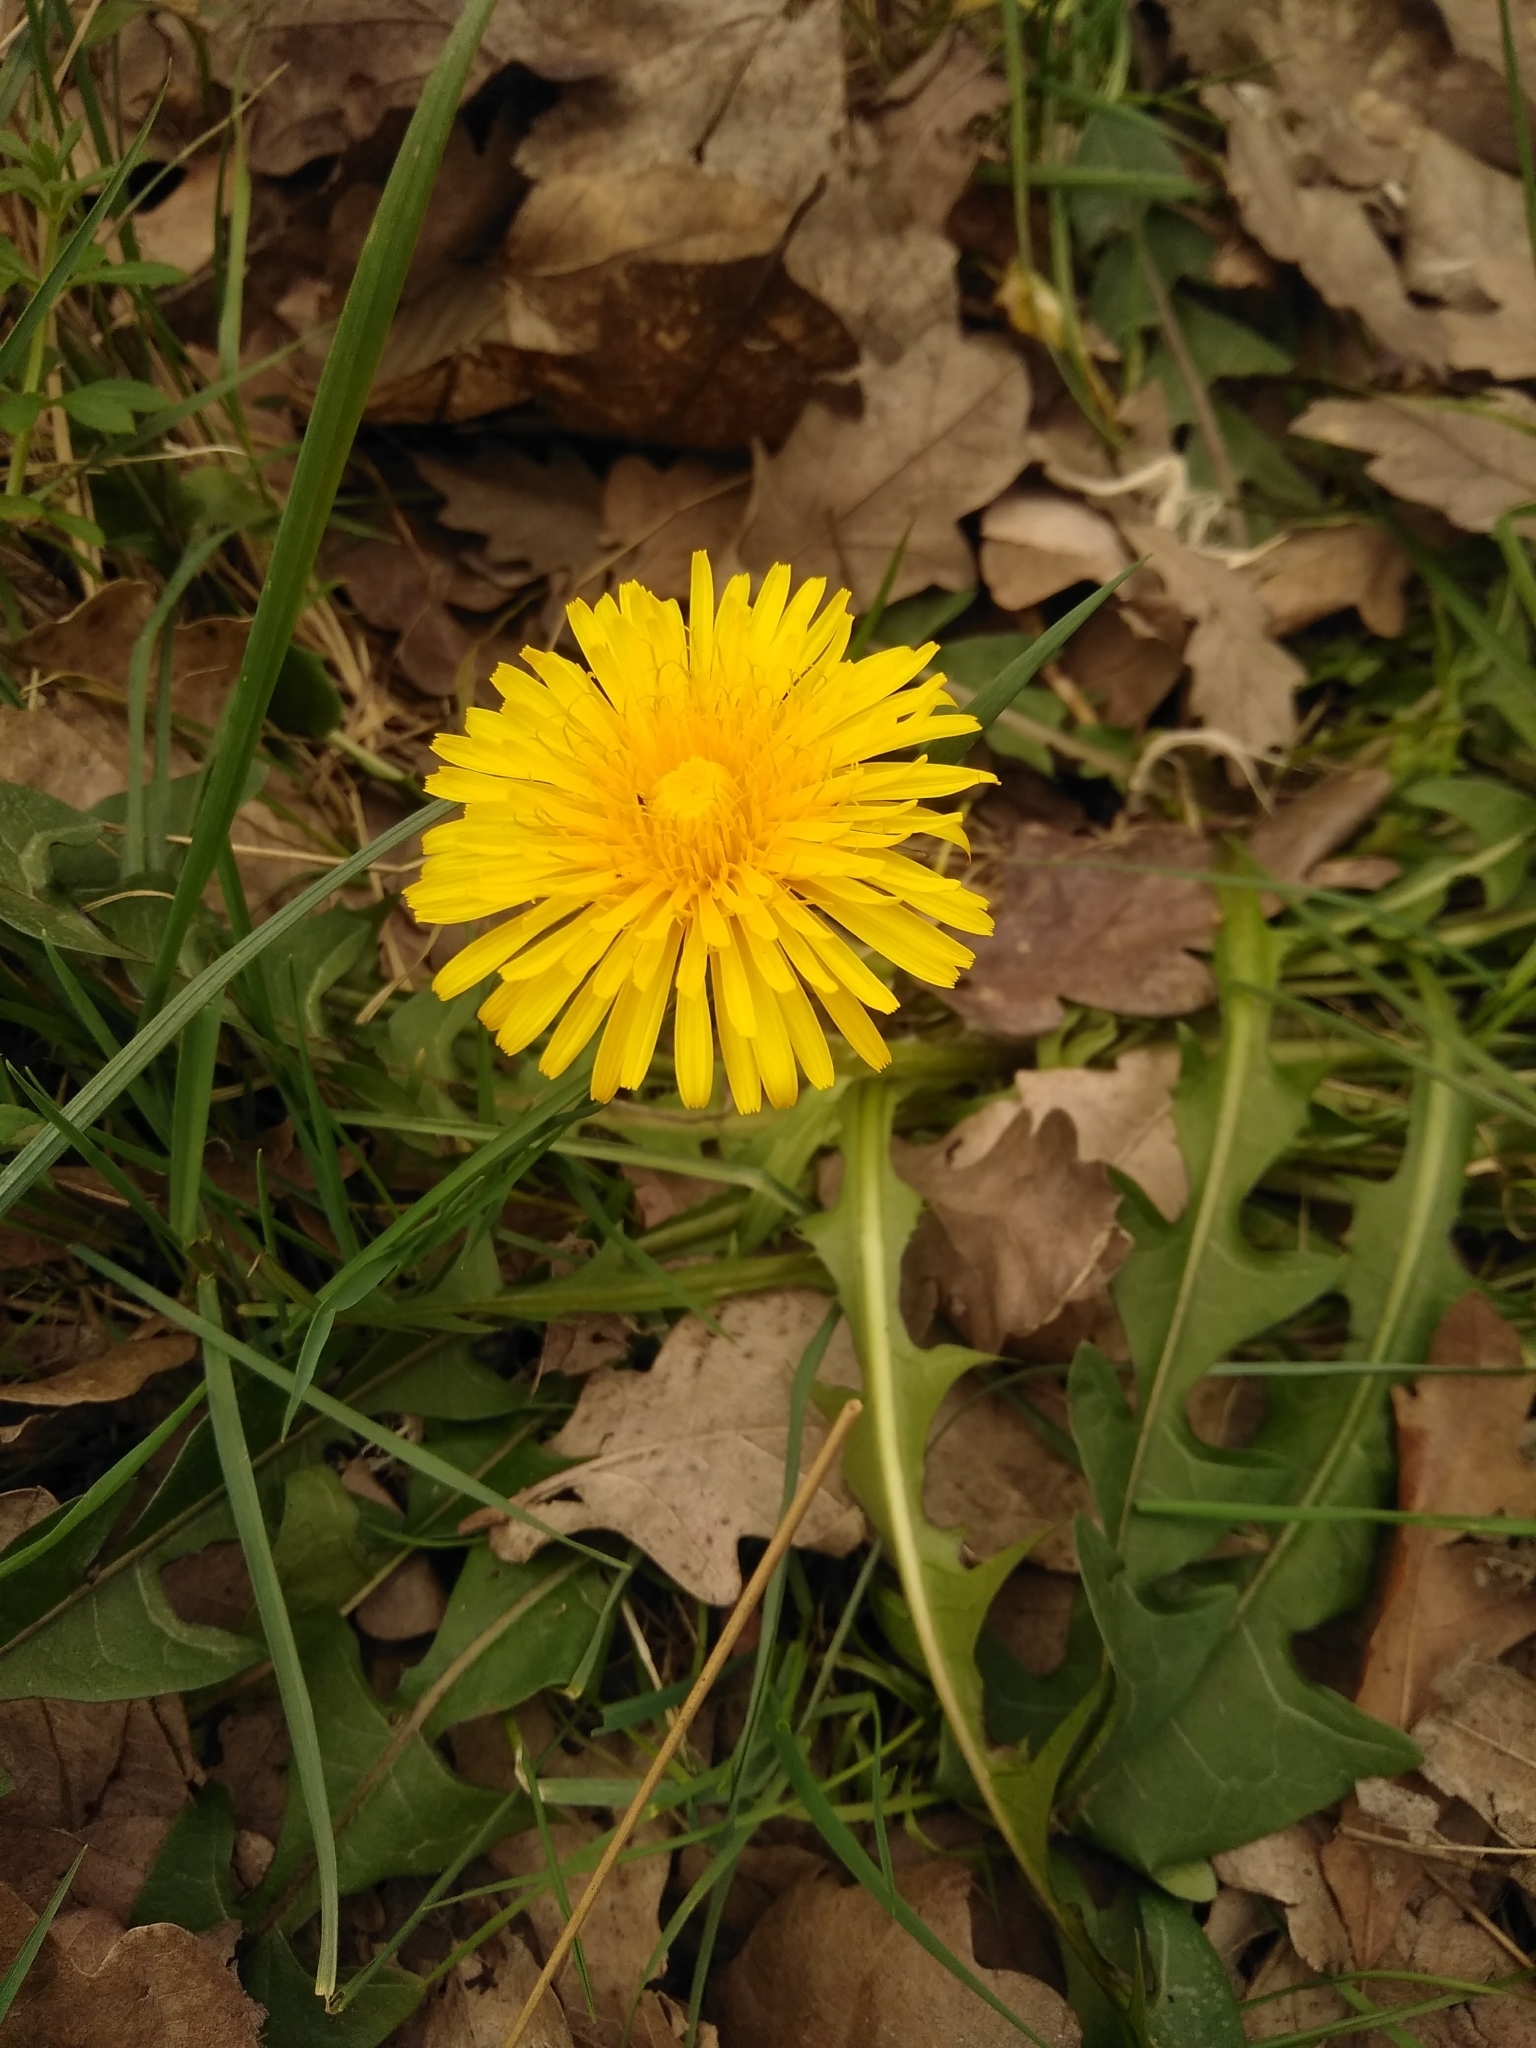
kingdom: Plantae
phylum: Tracheophyta
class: Magnoliopsida
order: Asterales
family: Asteraceae
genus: Taraxacum
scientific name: Taraxacum officinale
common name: Common dandelion
